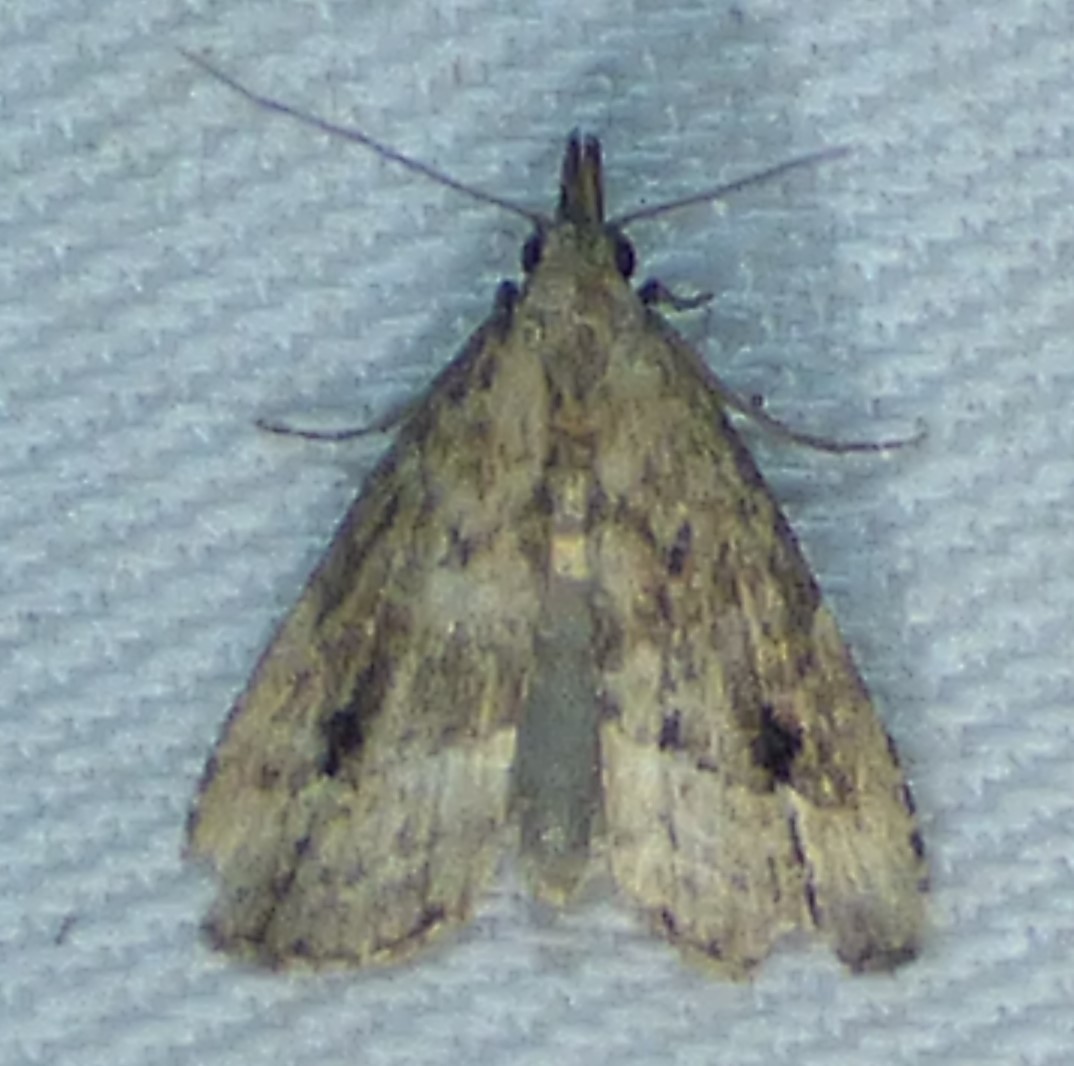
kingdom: Animalia
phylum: Arthropoda
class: Insecta
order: Lepidoptera
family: Erebidae
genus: Schrankia
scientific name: Schrankia
